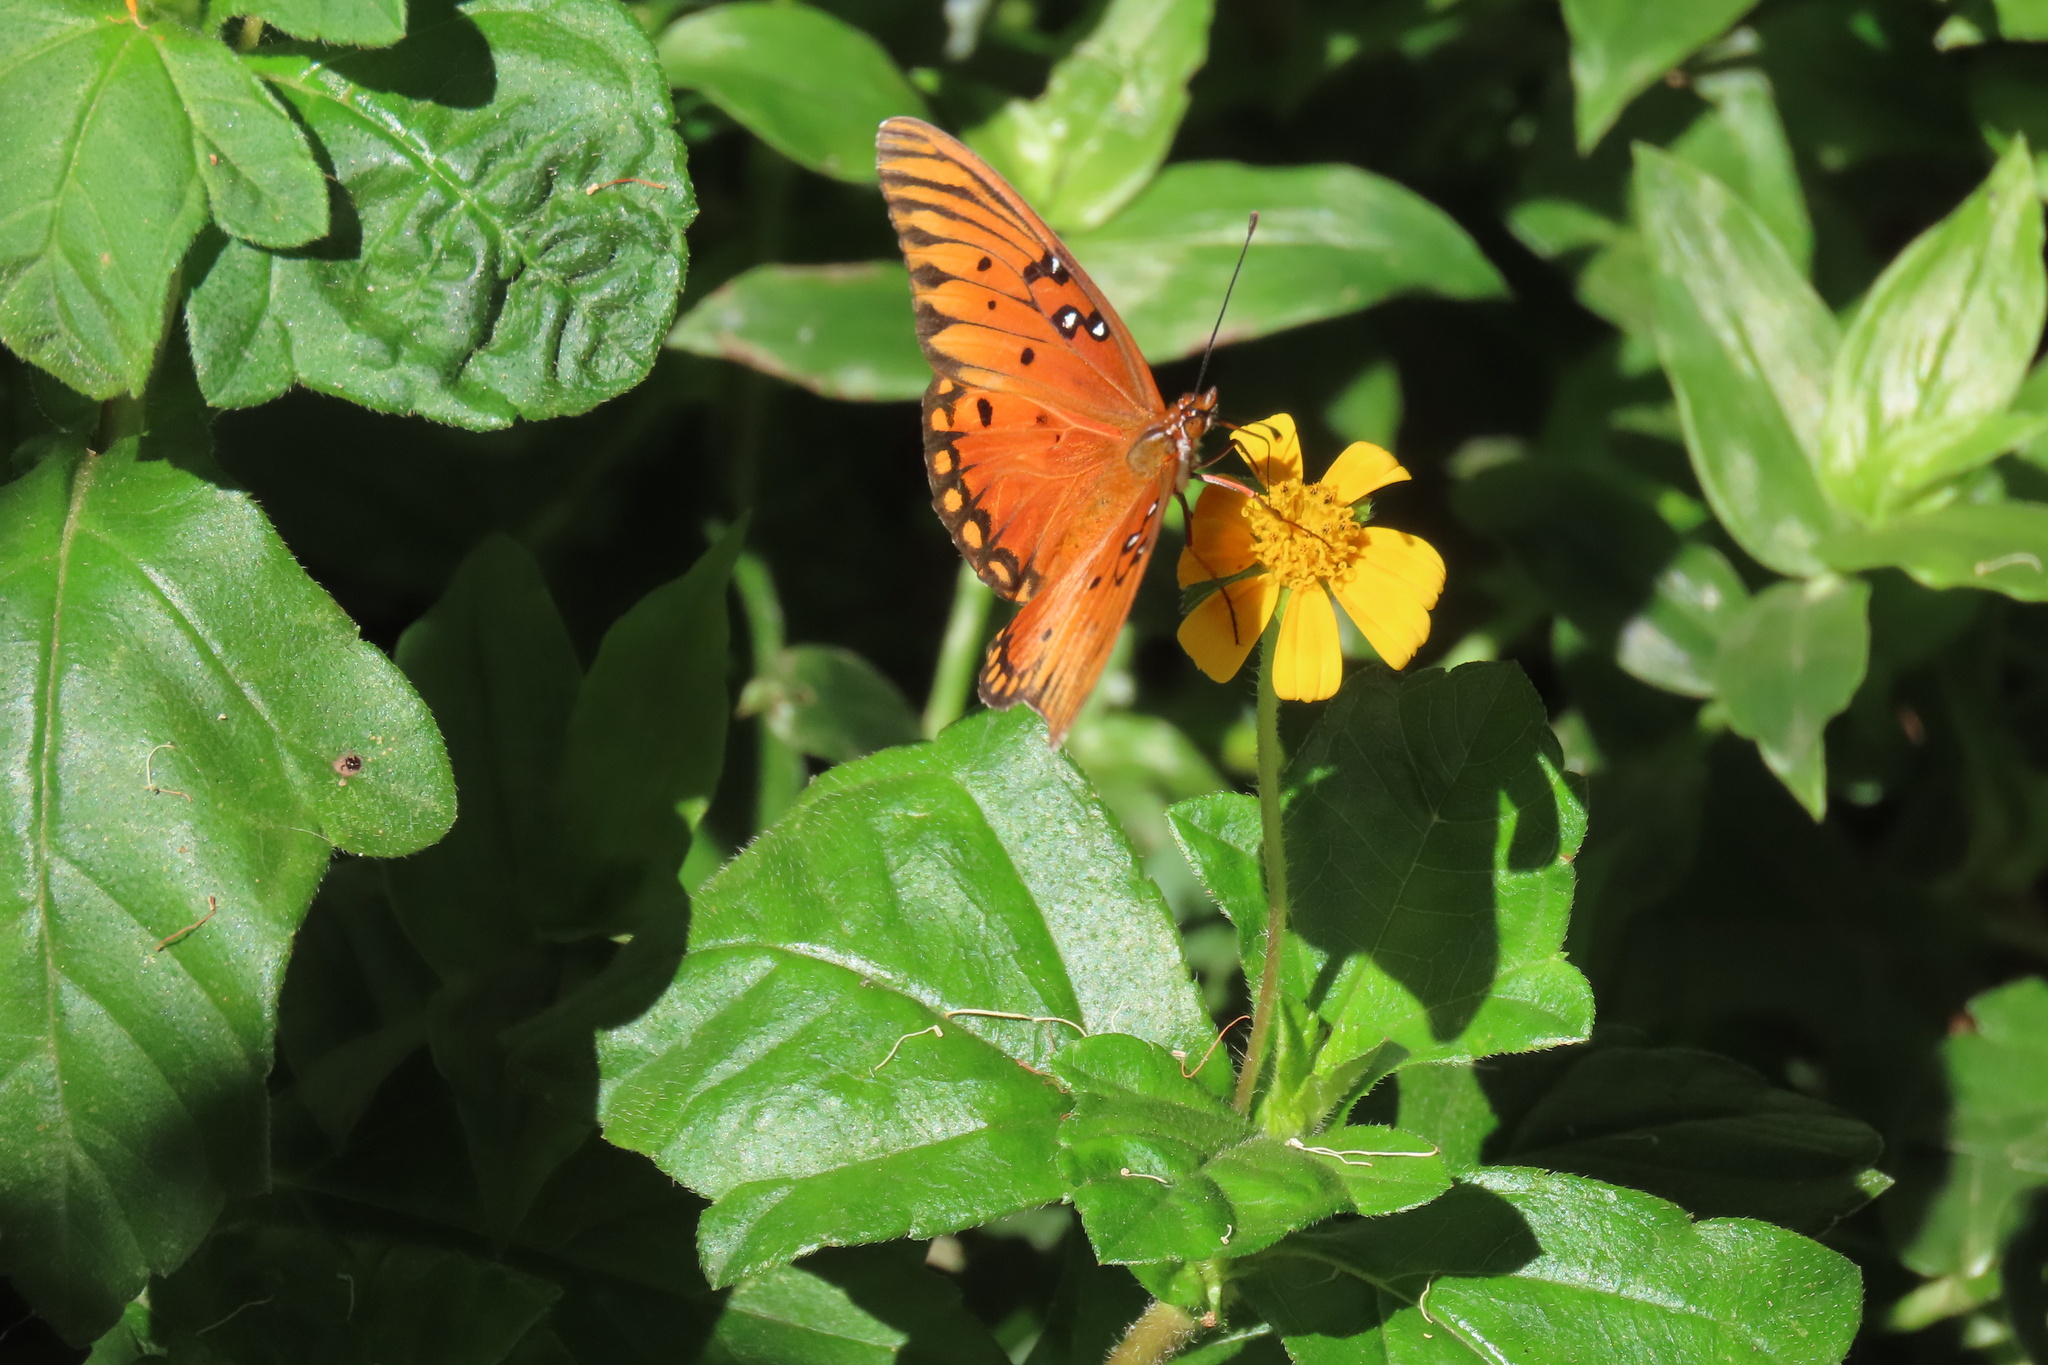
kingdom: Animalia
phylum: Arthropoda
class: Insecta
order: Lepidoptera
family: Nymphalidae
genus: Dione
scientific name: Dione vanillae
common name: Gulf fritillary
